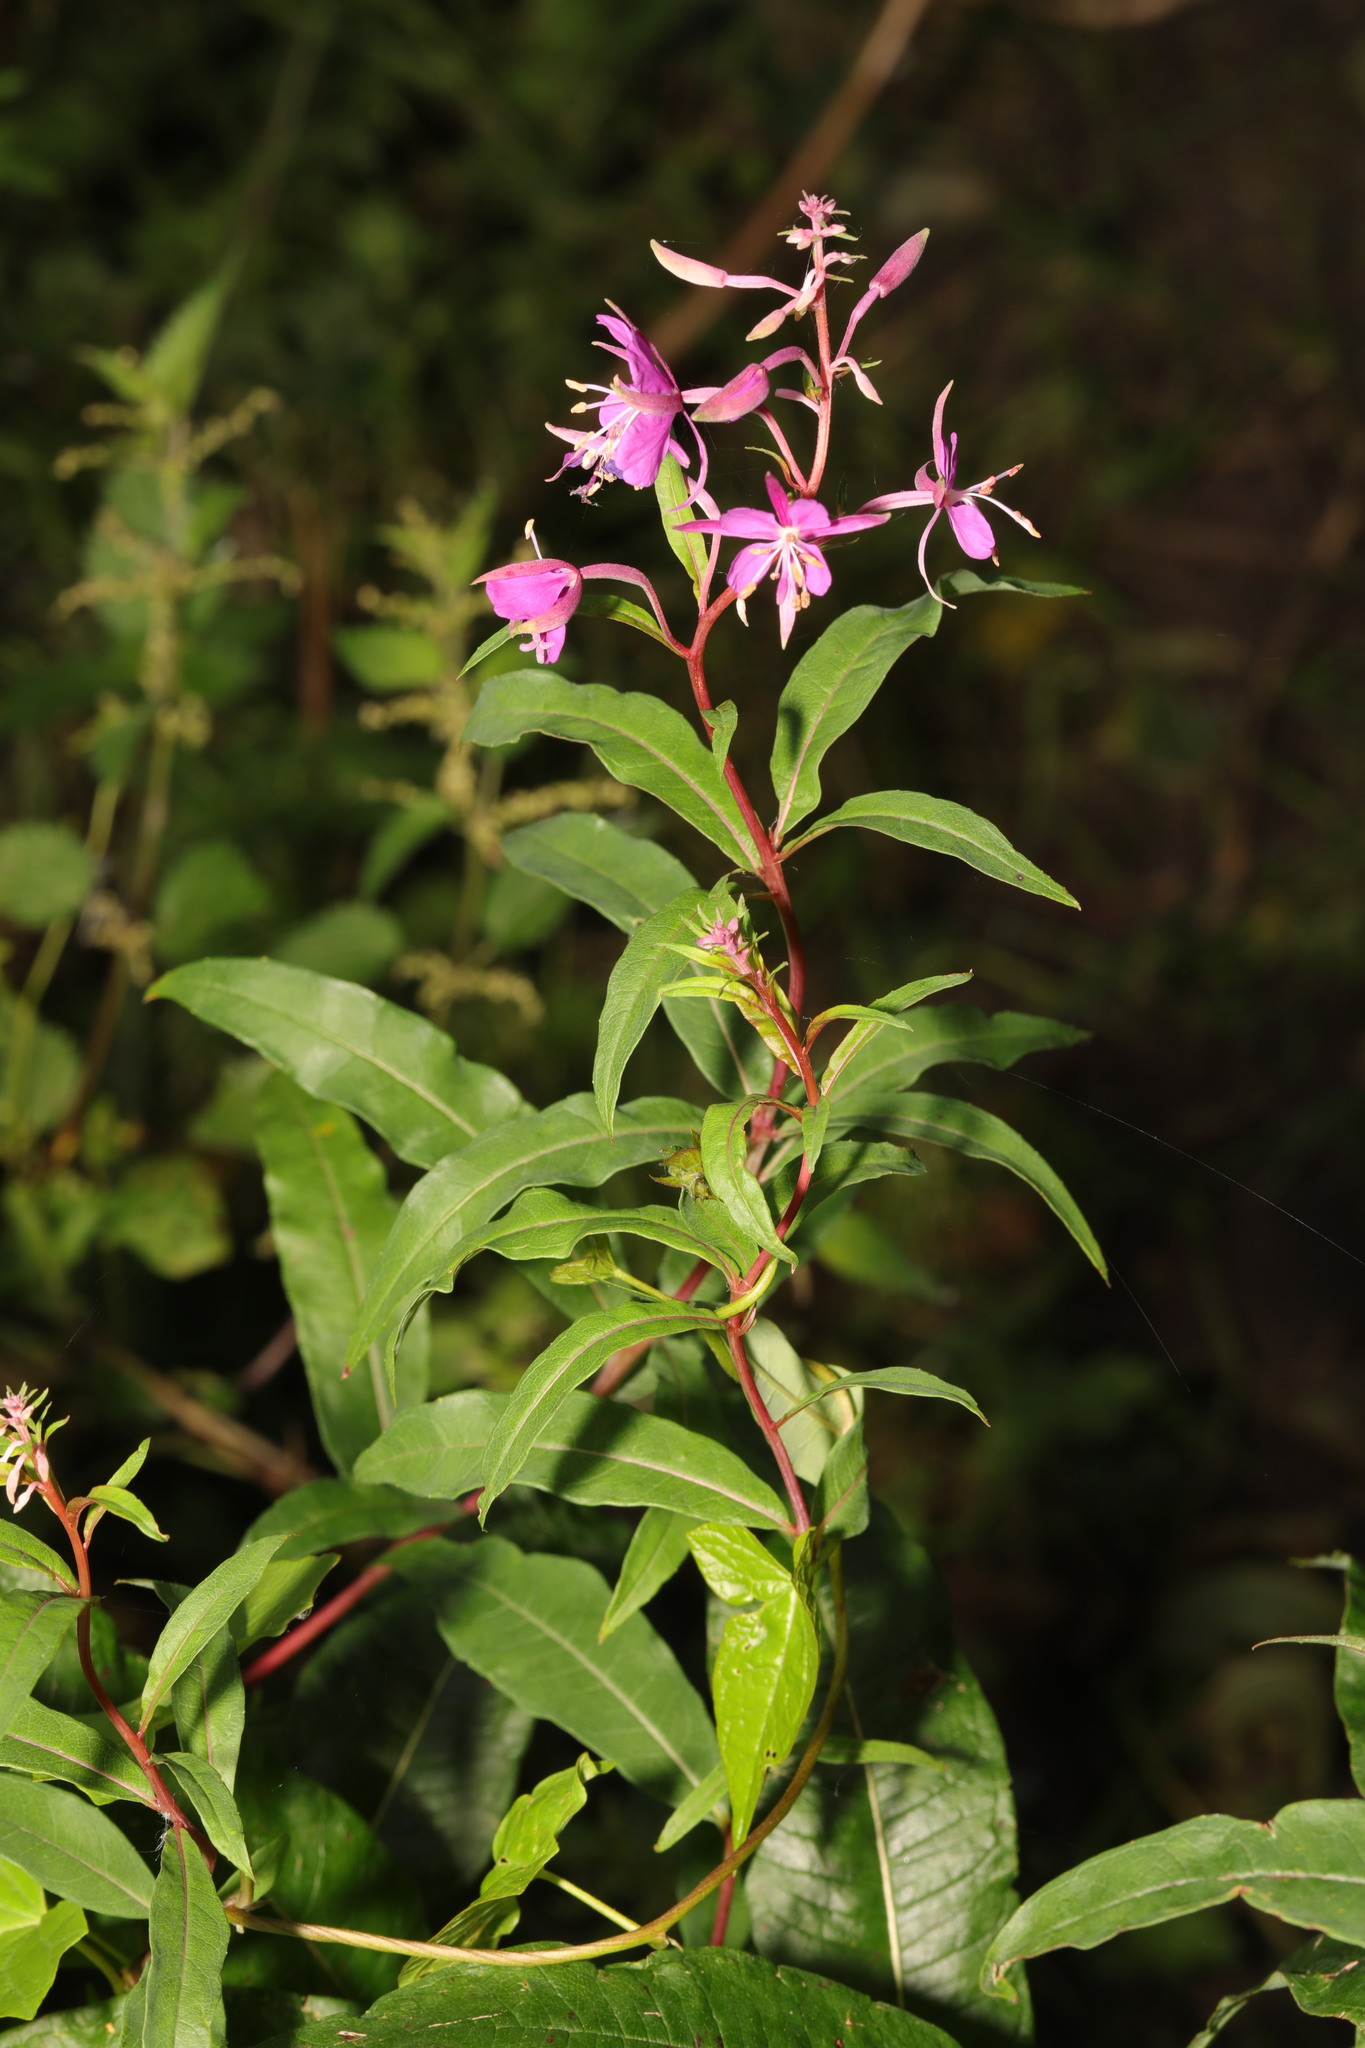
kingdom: Plantae
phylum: Tracheophyta
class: Magnoliopsida
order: Myrtales
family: Onagraceae
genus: Chamaenerion
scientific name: Chamaenerion angustifolium
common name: Fireweed
